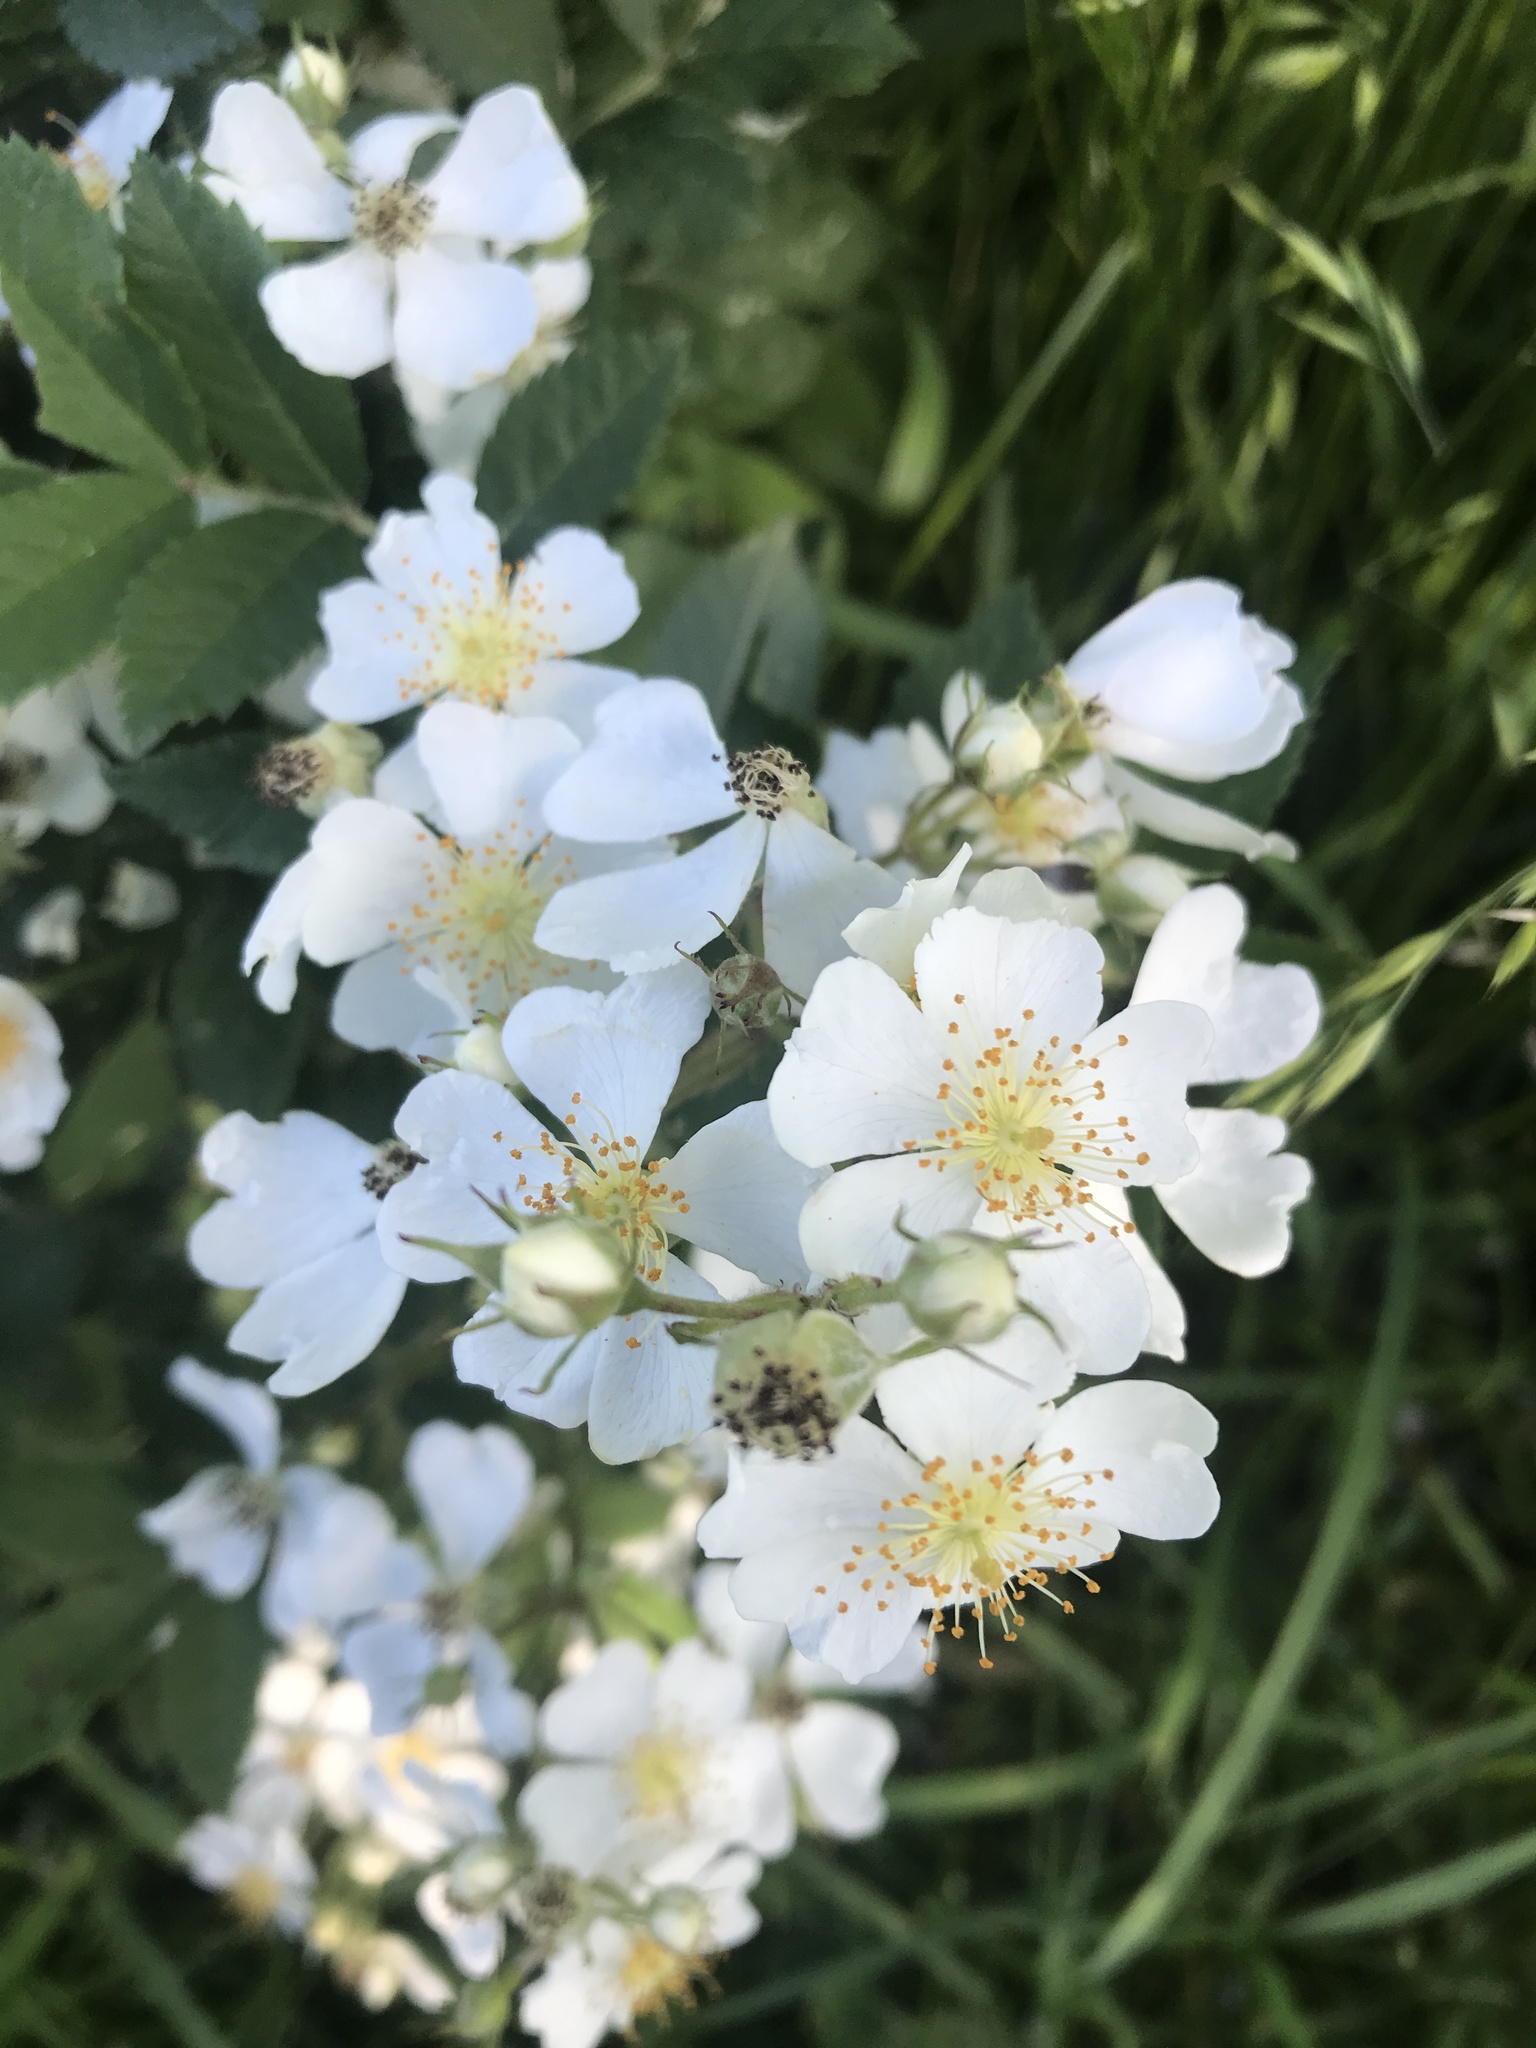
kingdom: Plantae
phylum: Tracheophyta
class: Magnoliopsida
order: Rosales
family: Rosaceae
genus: Rosa
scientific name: Rosa multiflora
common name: Multiflora rose
